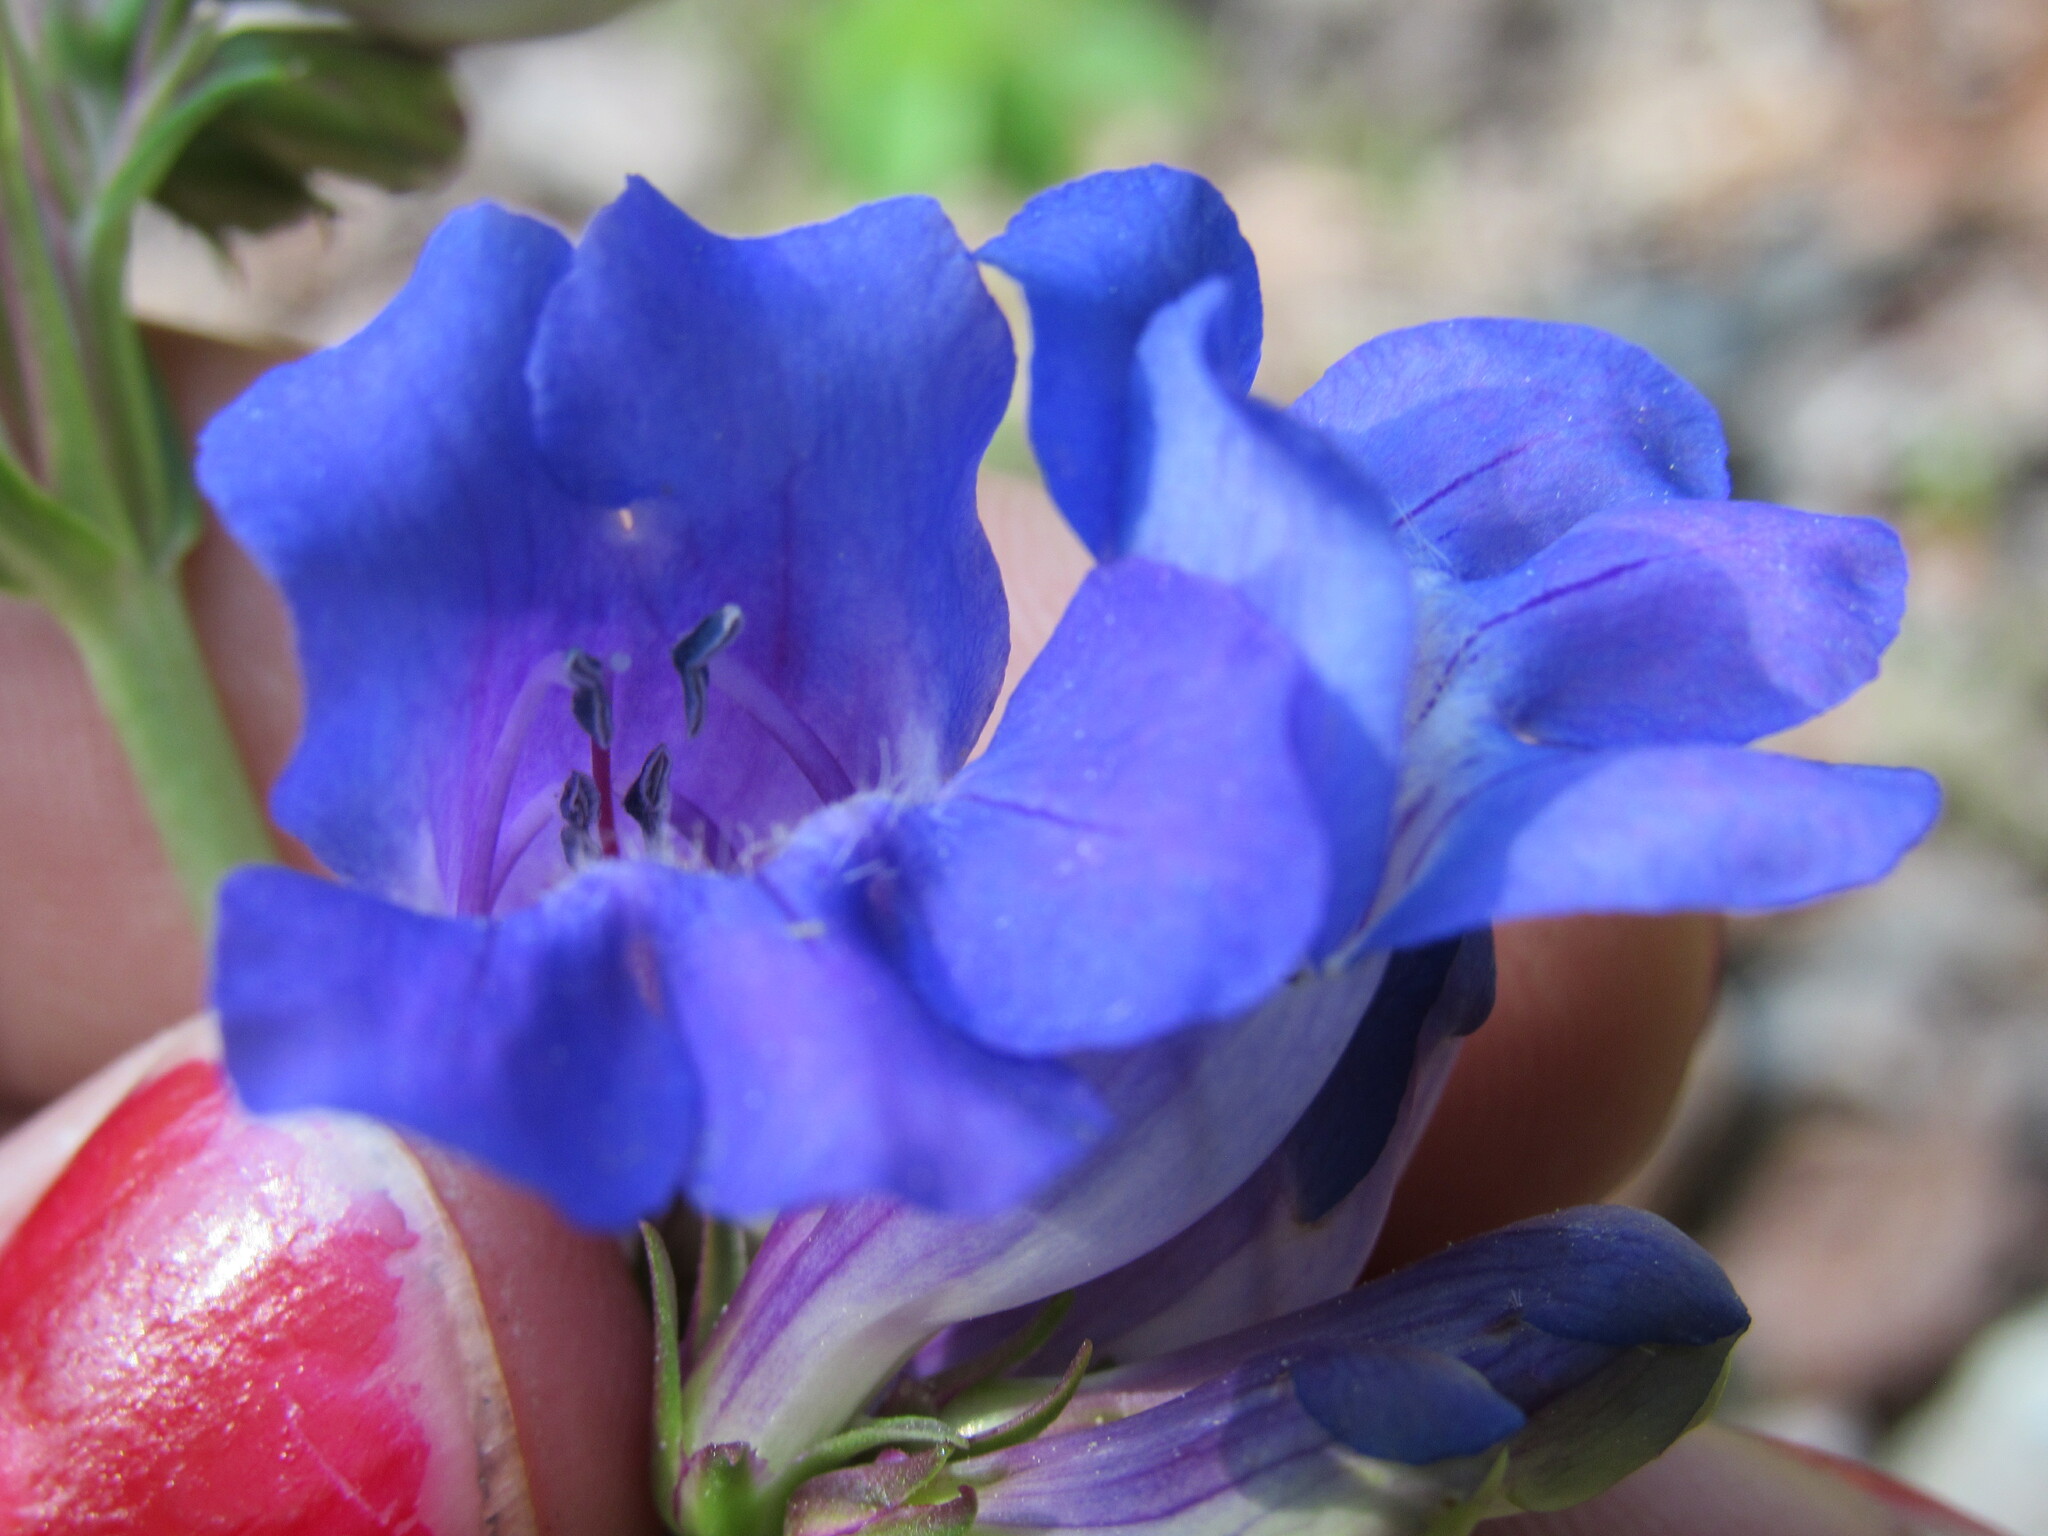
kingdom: Plantae
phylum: Tracheophyta
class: Magnoliopsida
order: Lamiales
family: Plantaginaceae
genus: Penstemon
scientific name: Penstemon glaber
